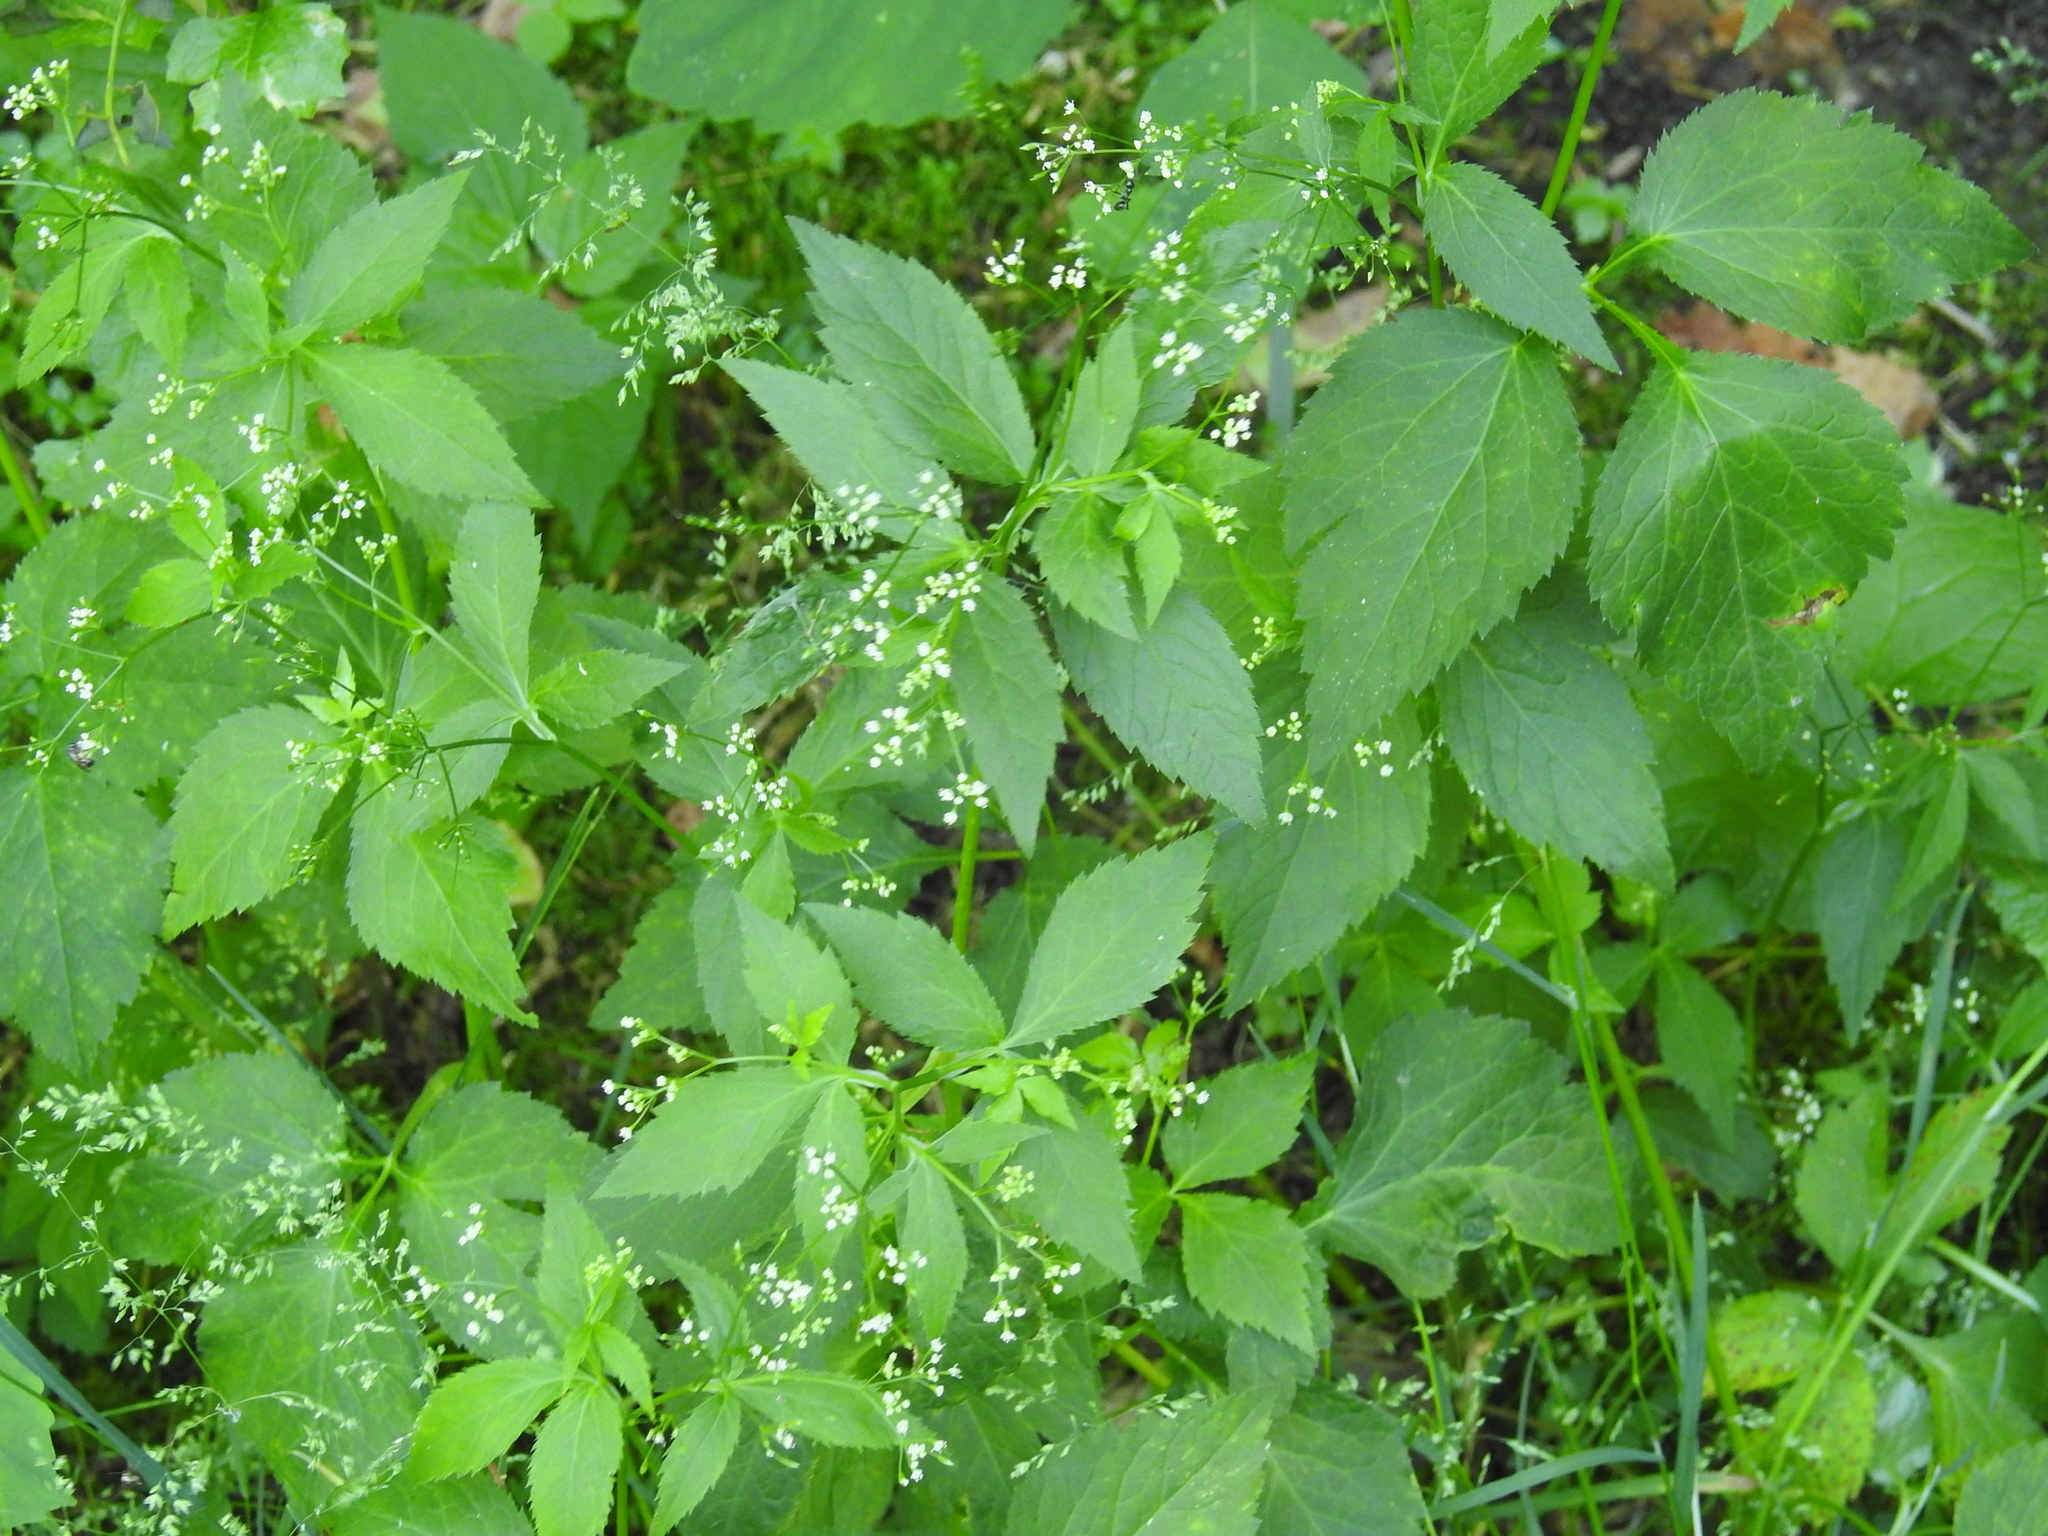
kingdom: Plantae
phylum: Tracheophyta
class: Magnoliopsida
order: Apiales
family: Apiaceae
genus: Cryptotaenia
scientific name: Cryptotaenia canadensis
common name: Honewort
